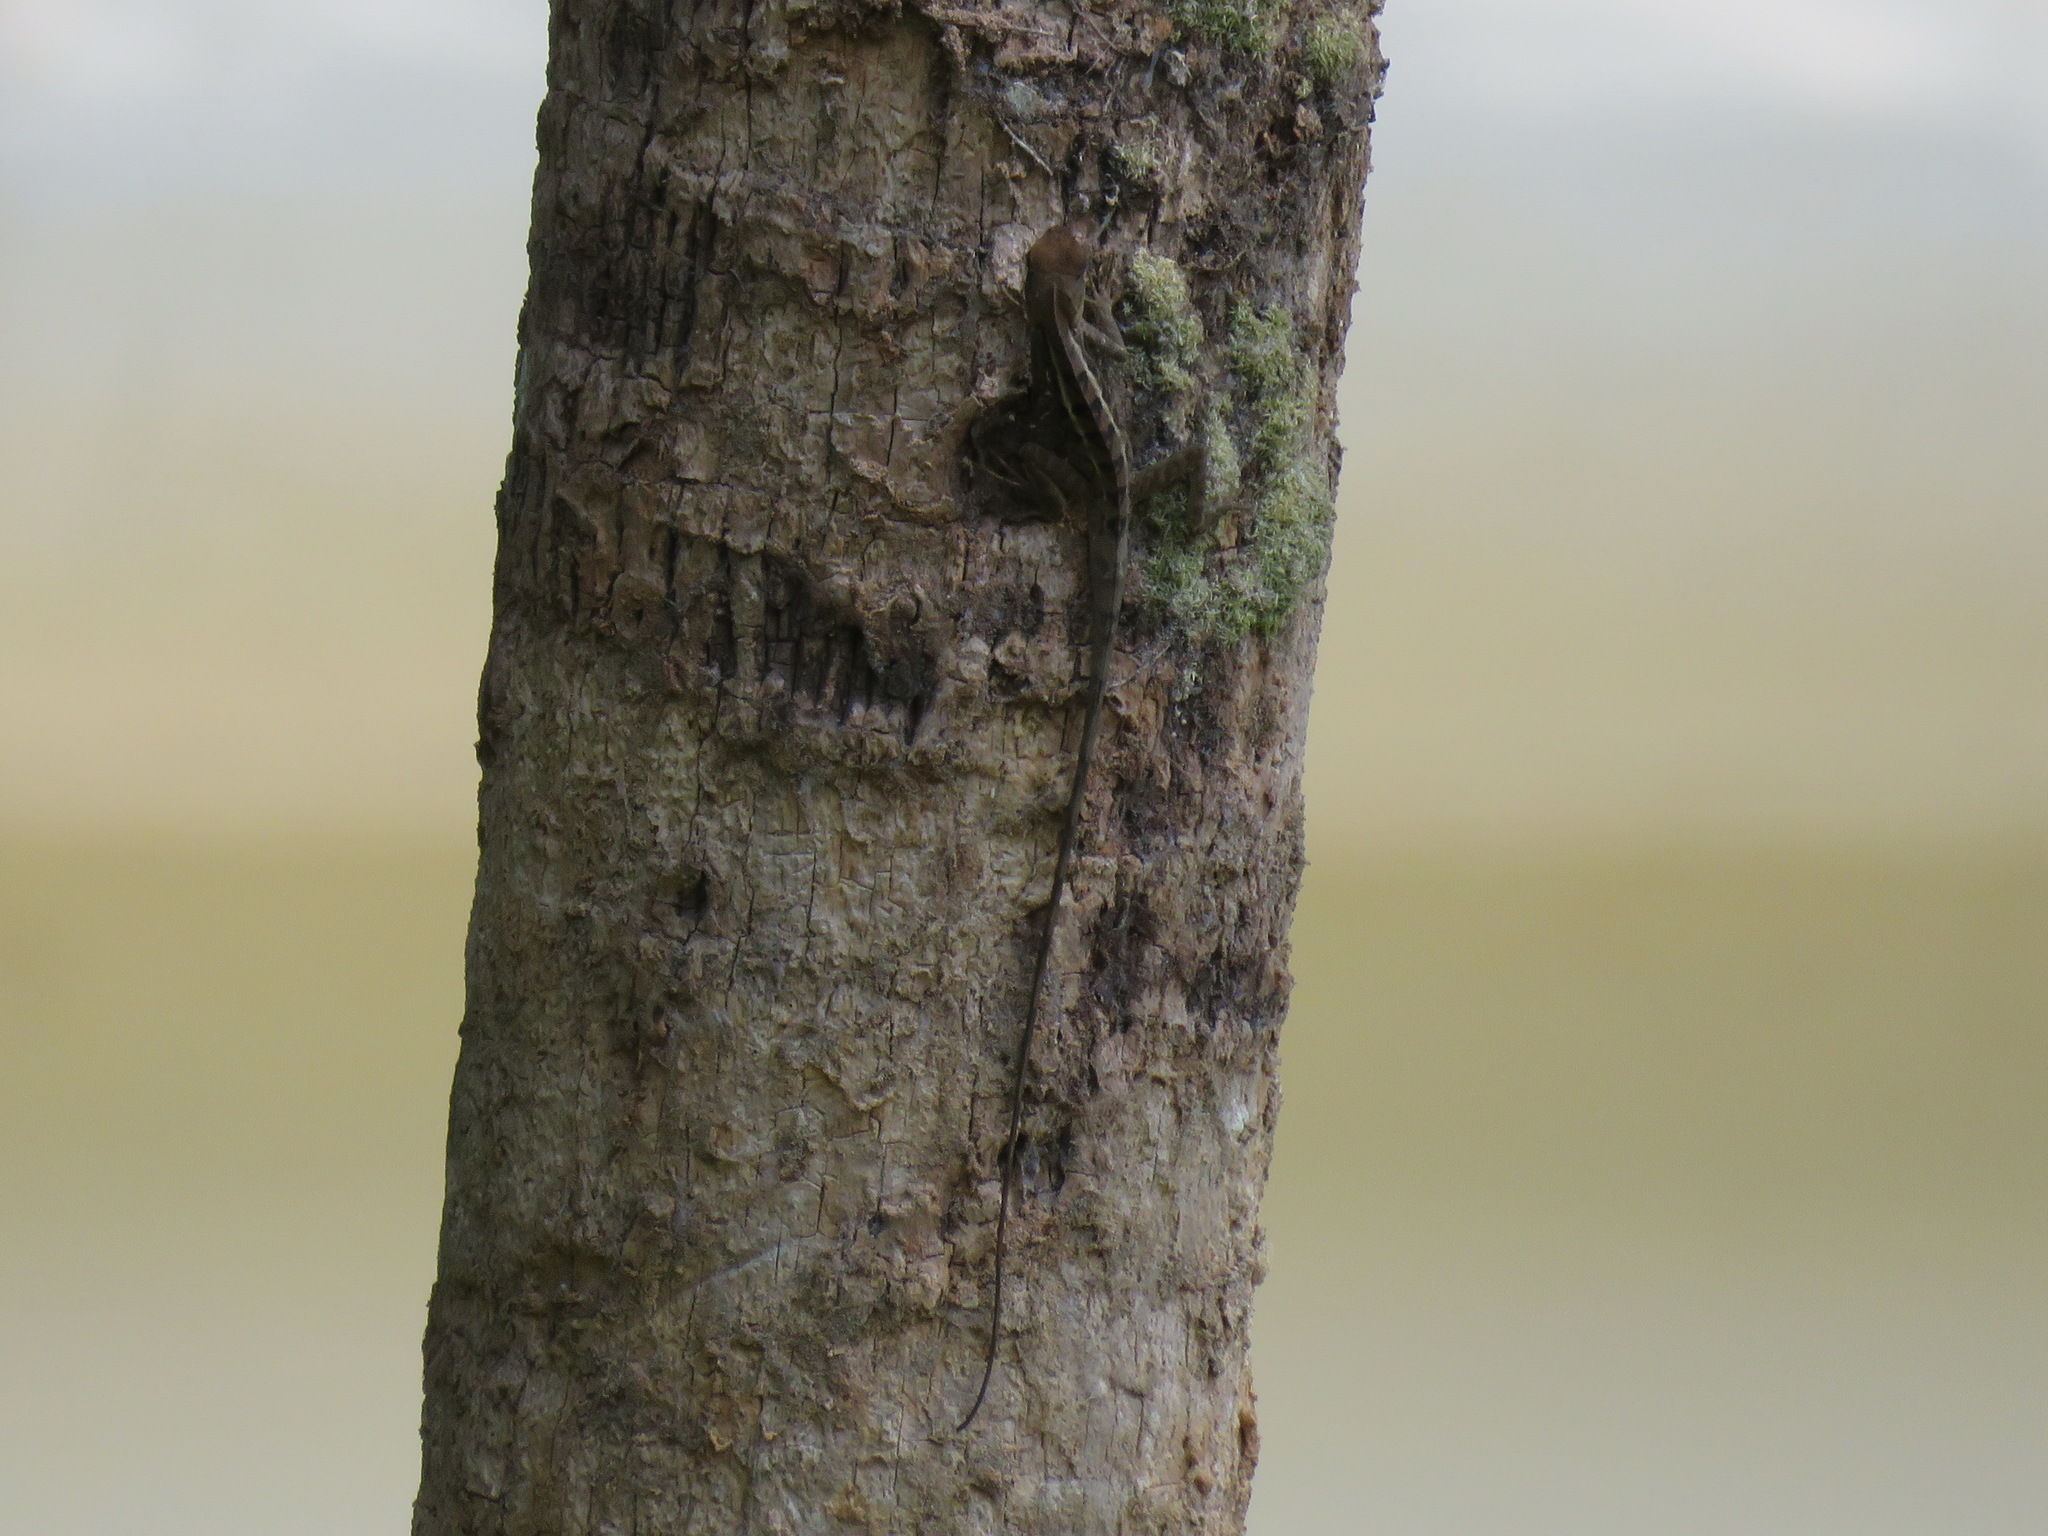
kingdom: Animalia
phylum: Chordata
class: Squamata
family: Agamidae
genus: Calotes
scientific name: Calotes emma
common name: Thailand bloodsucker
